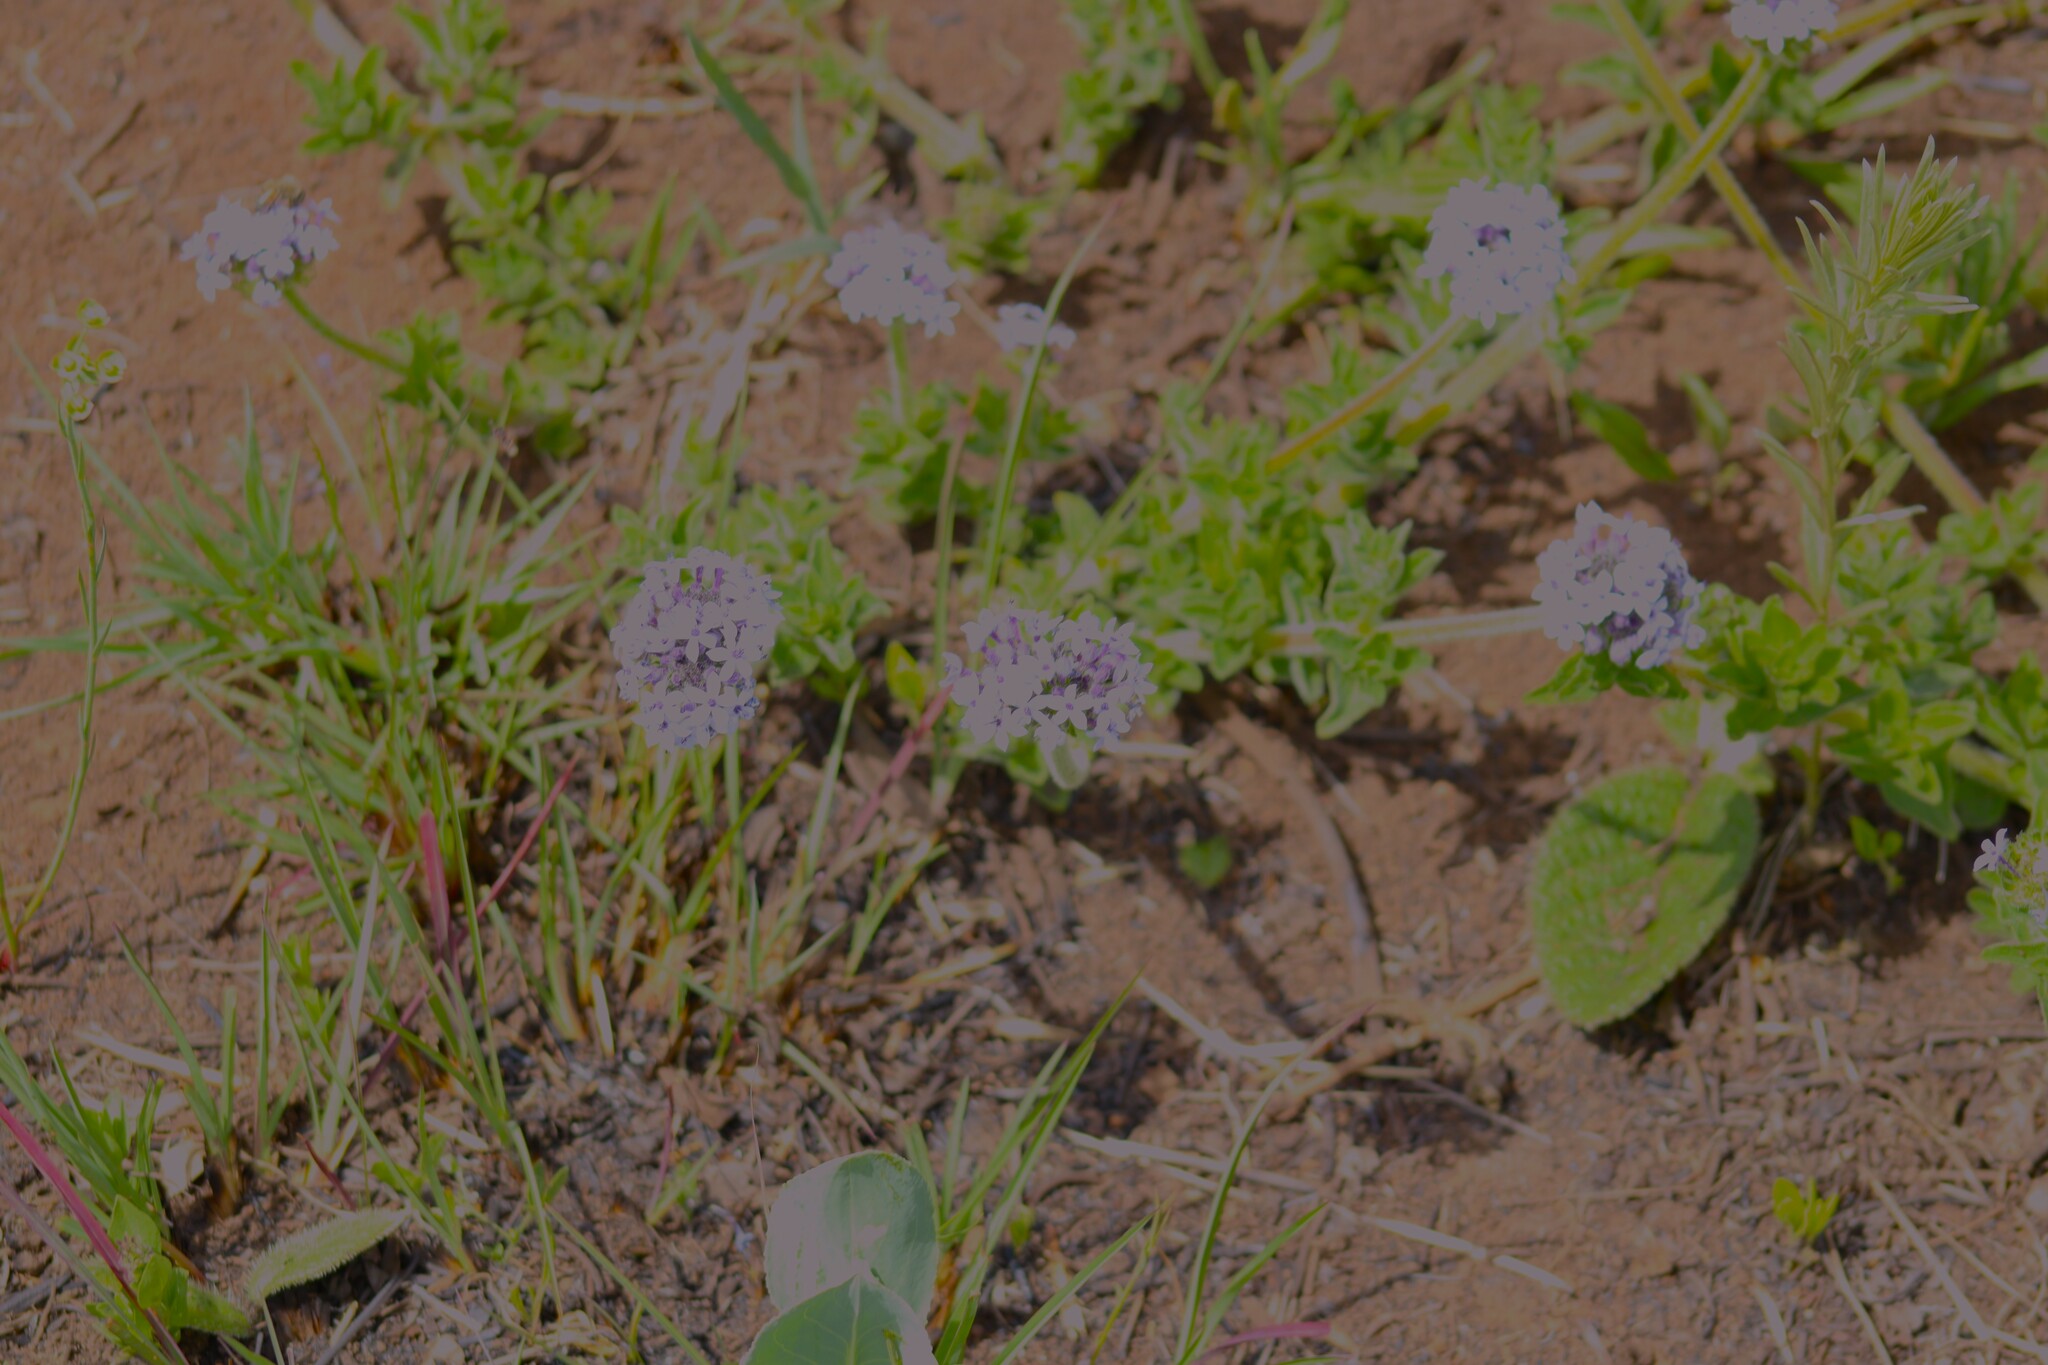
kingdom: Plantae
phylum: Tracheophyta
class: Magnoliopsida
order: Boraginales
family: Heliotropiaceae
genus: Heliotropium
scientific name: Heliotropium amplexicaule
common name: Clasping heliotrope
